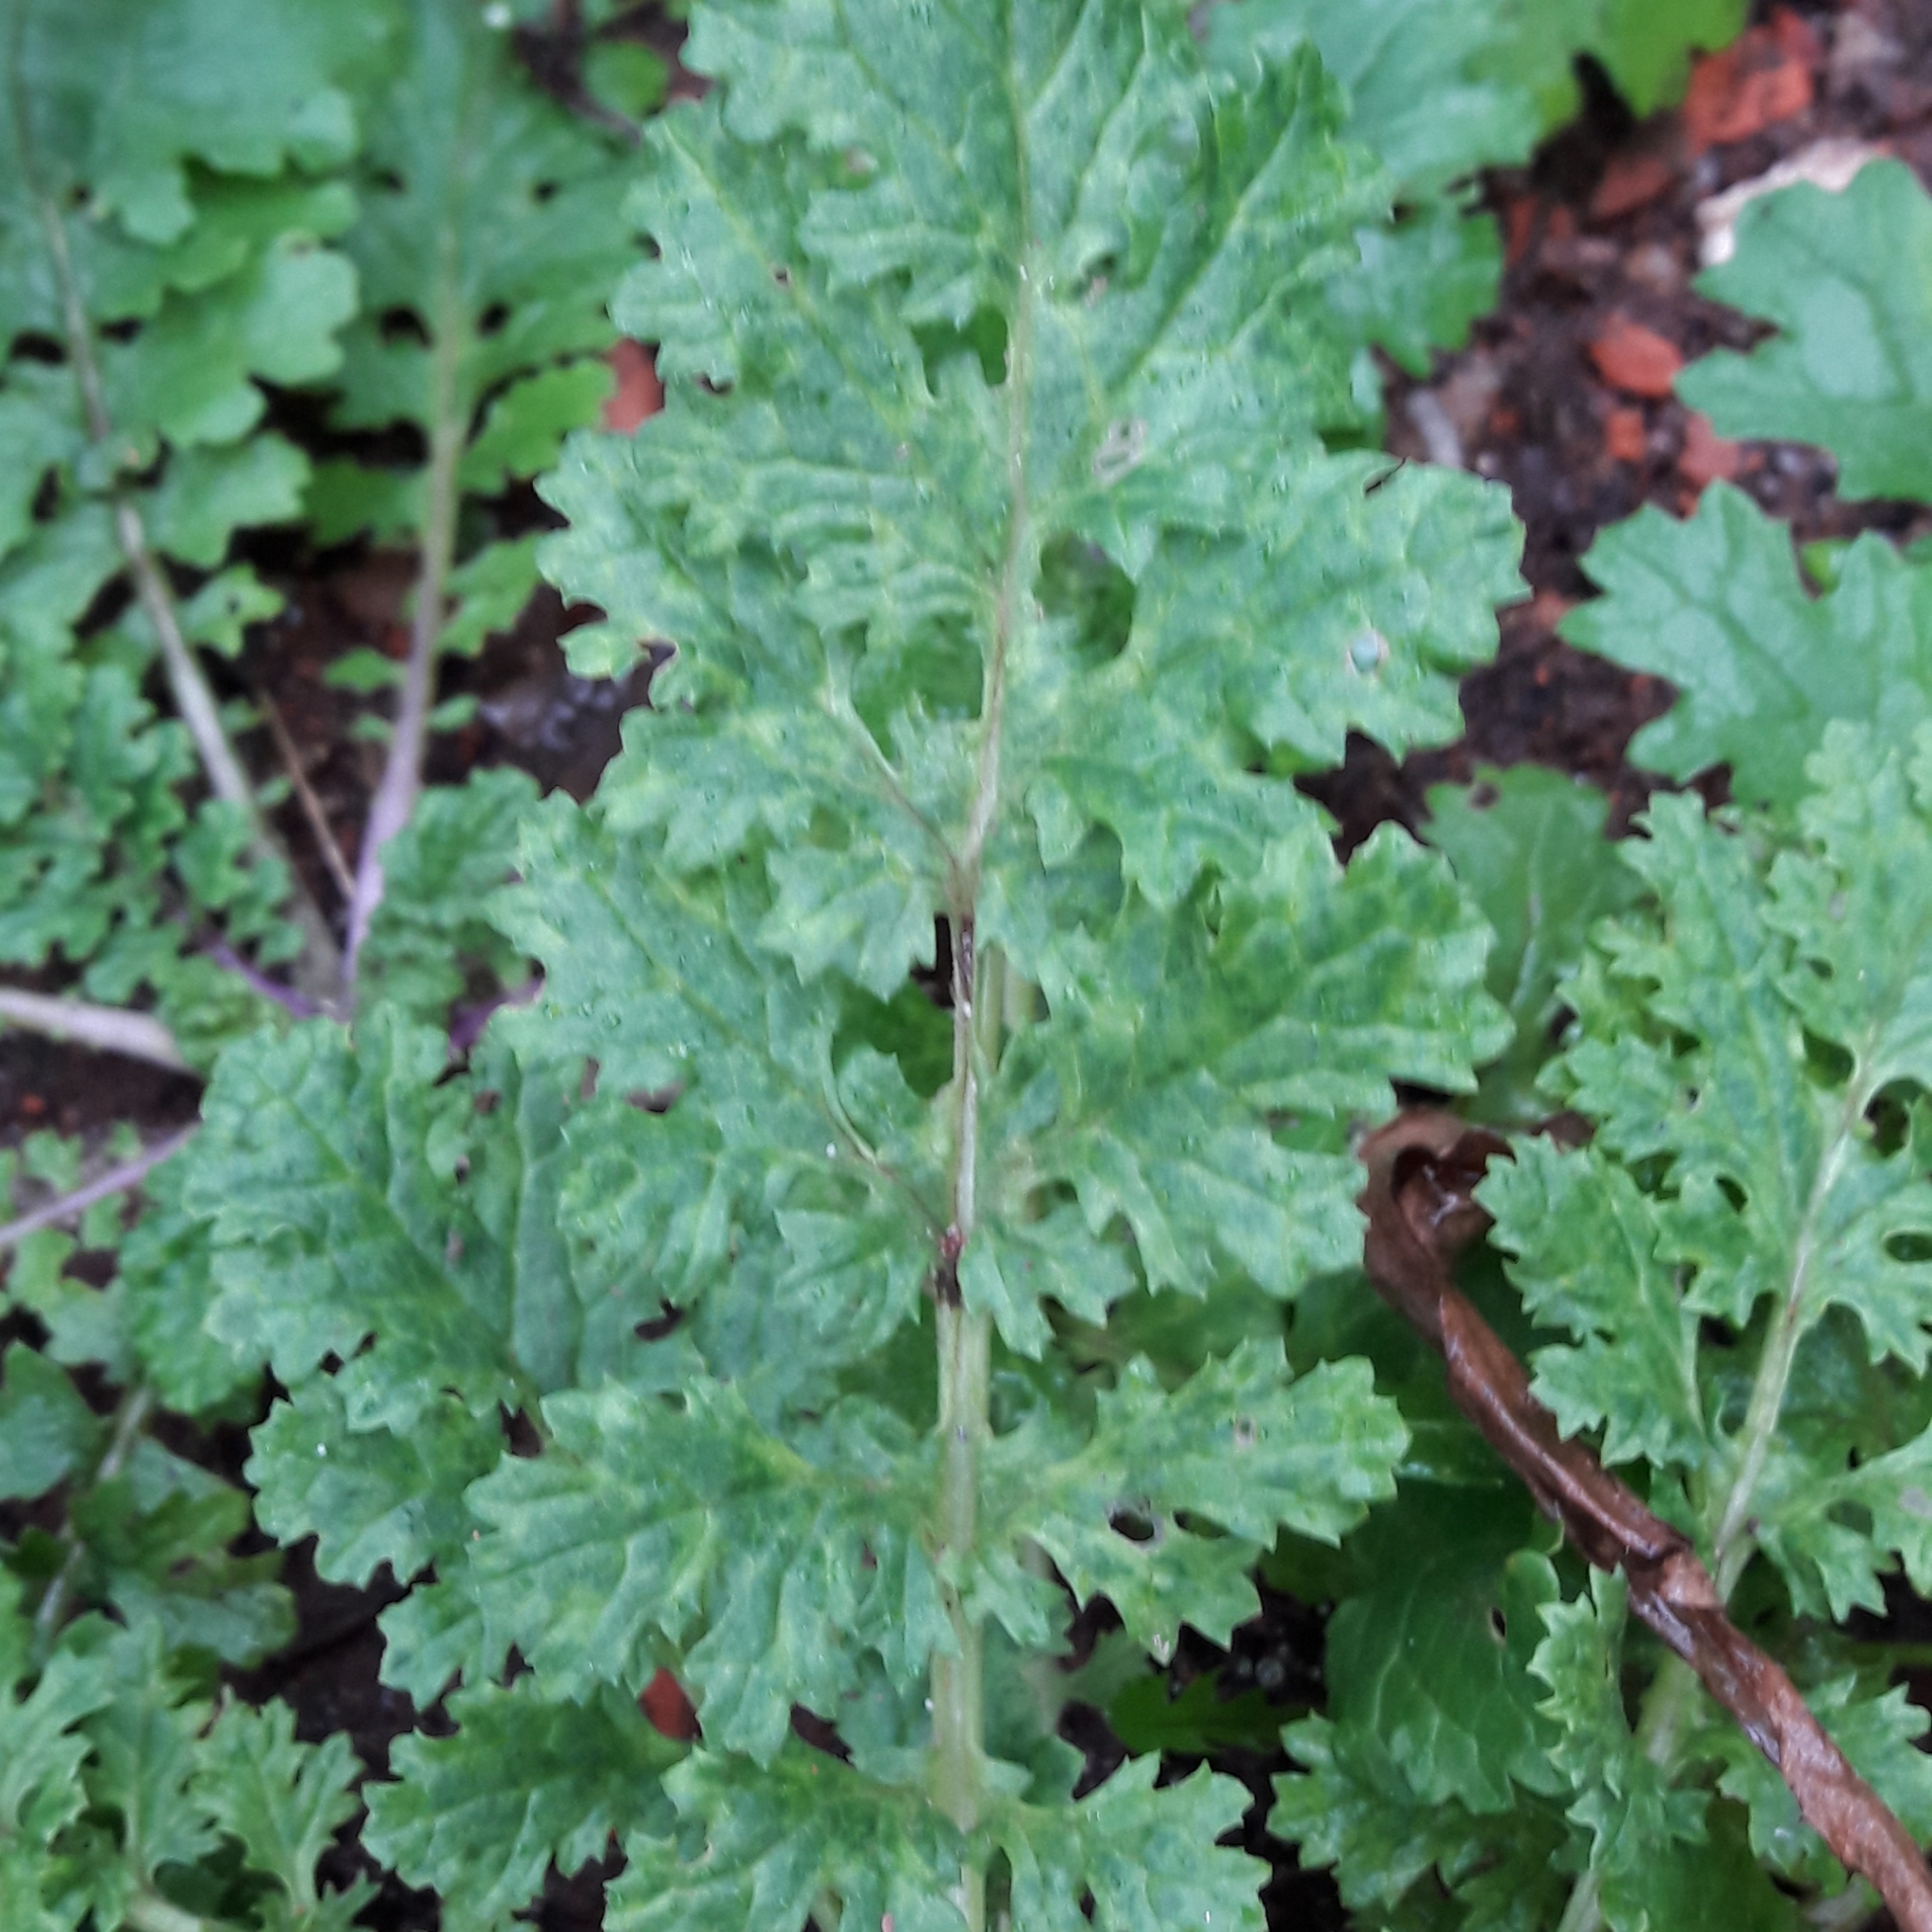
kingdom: Plantae
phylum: Tracheophyta
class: Magnoliopsida
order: Asterales
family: Asteraceae
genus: Jacobaea
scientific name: Jacobaea vulgaris
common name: Stinking willie
